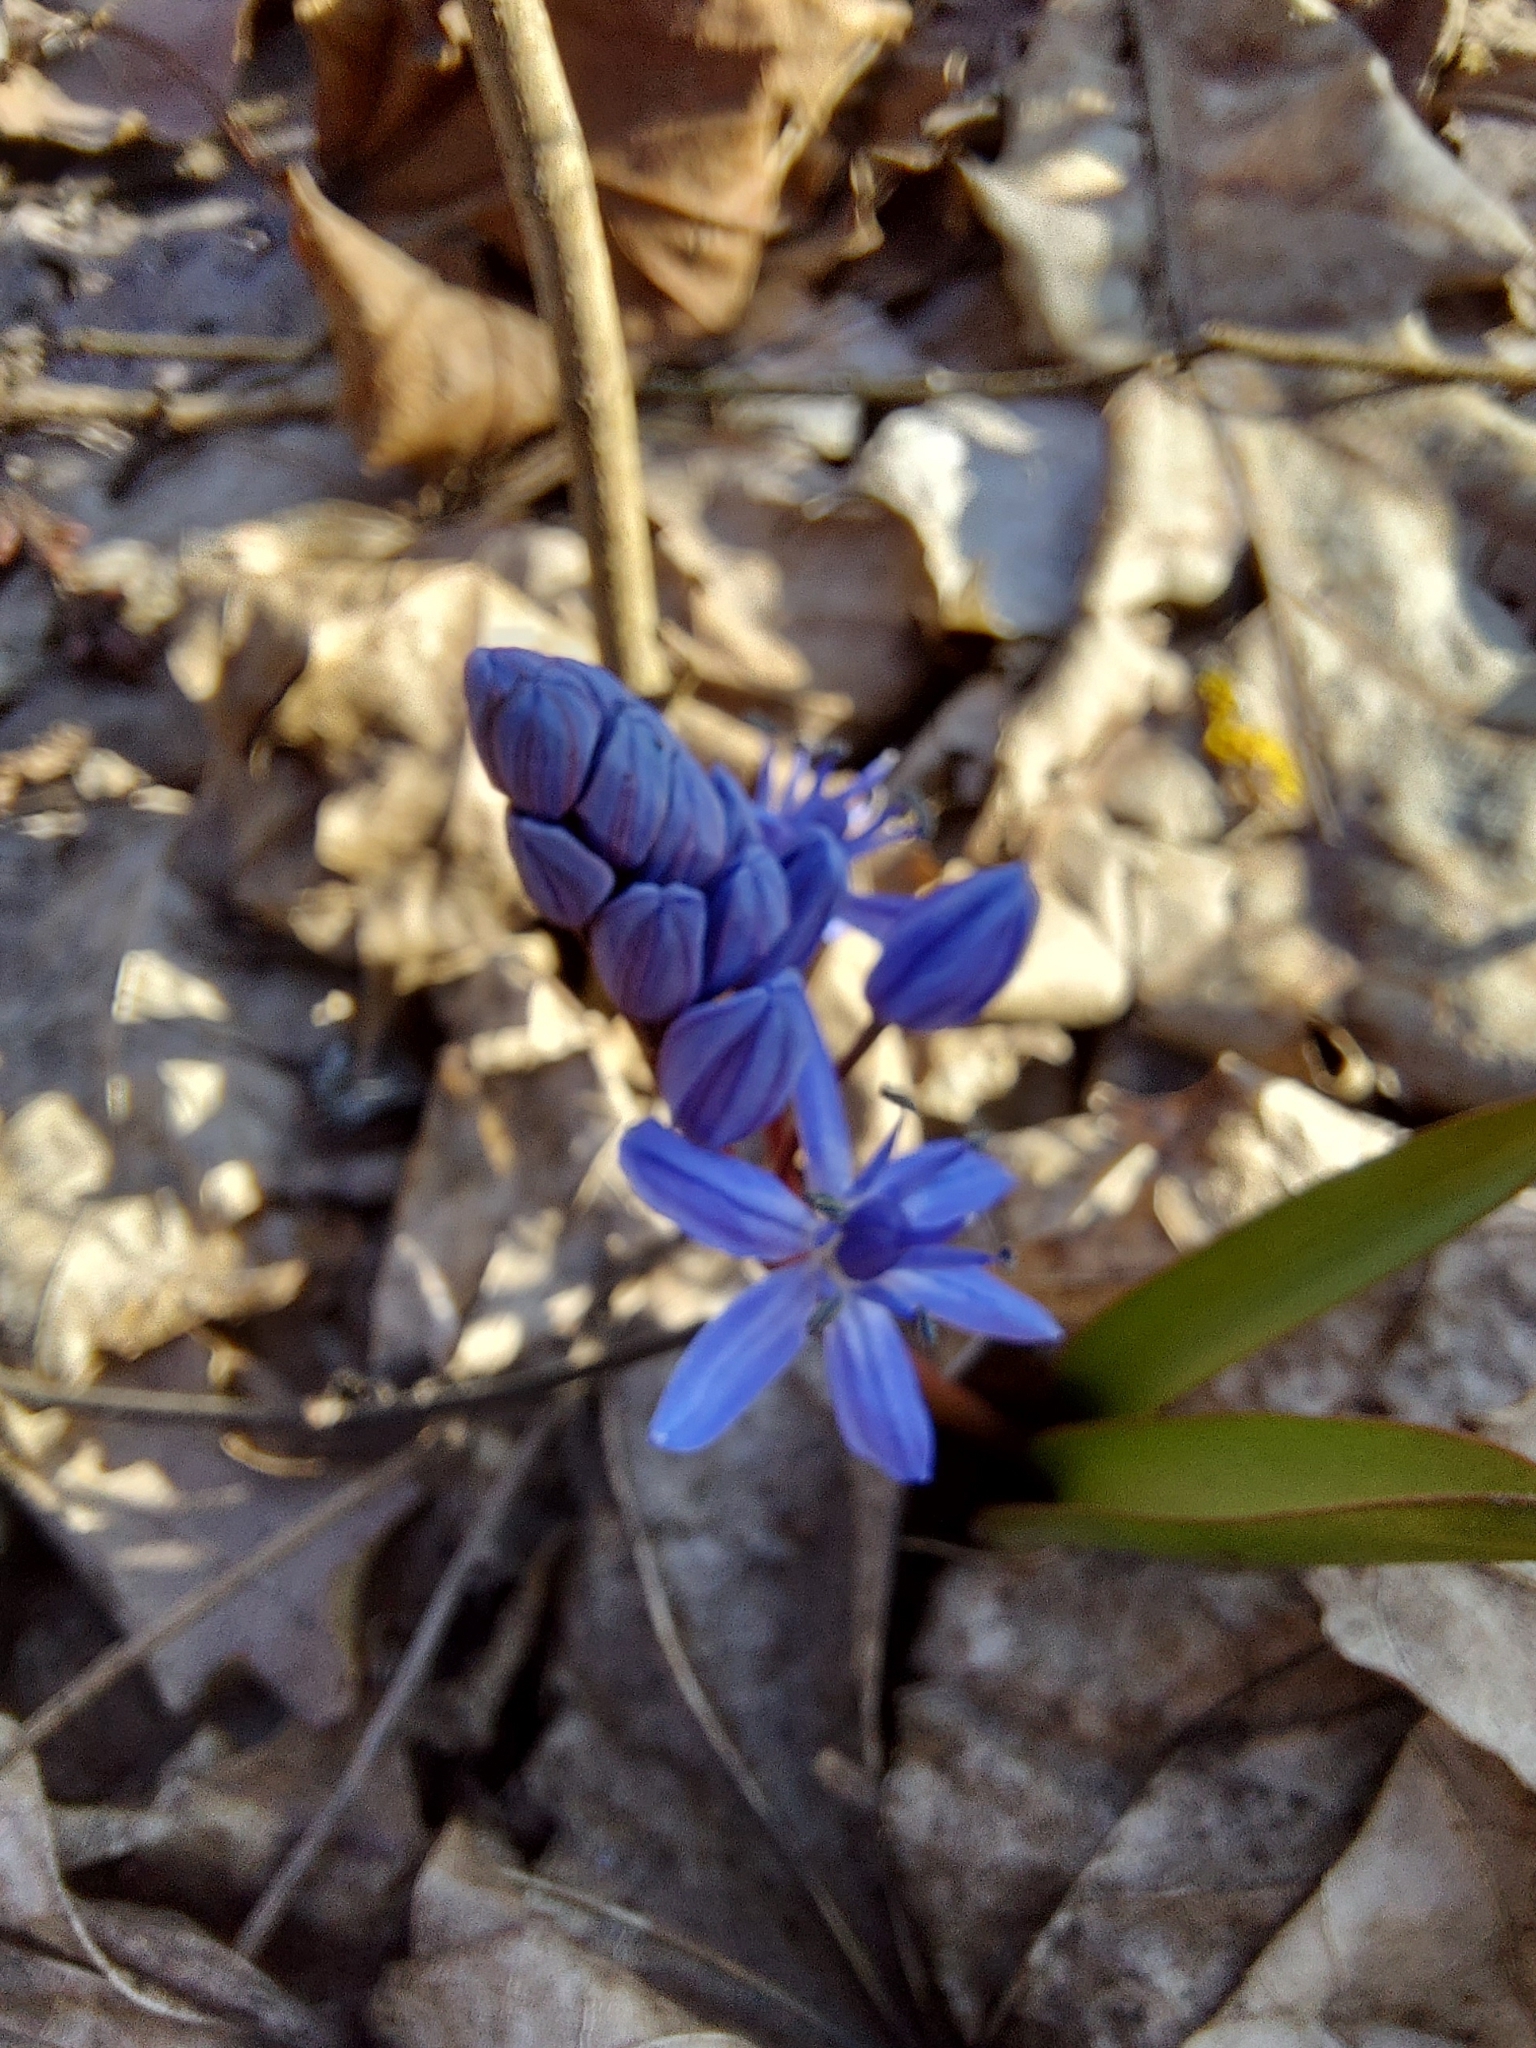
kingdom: Plantae
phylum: Tracheophyta
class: Liliopsida
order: Asparagales
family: Asparagaceae
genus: Scilla
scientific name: Scilla bifolia
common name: Alpine squill
